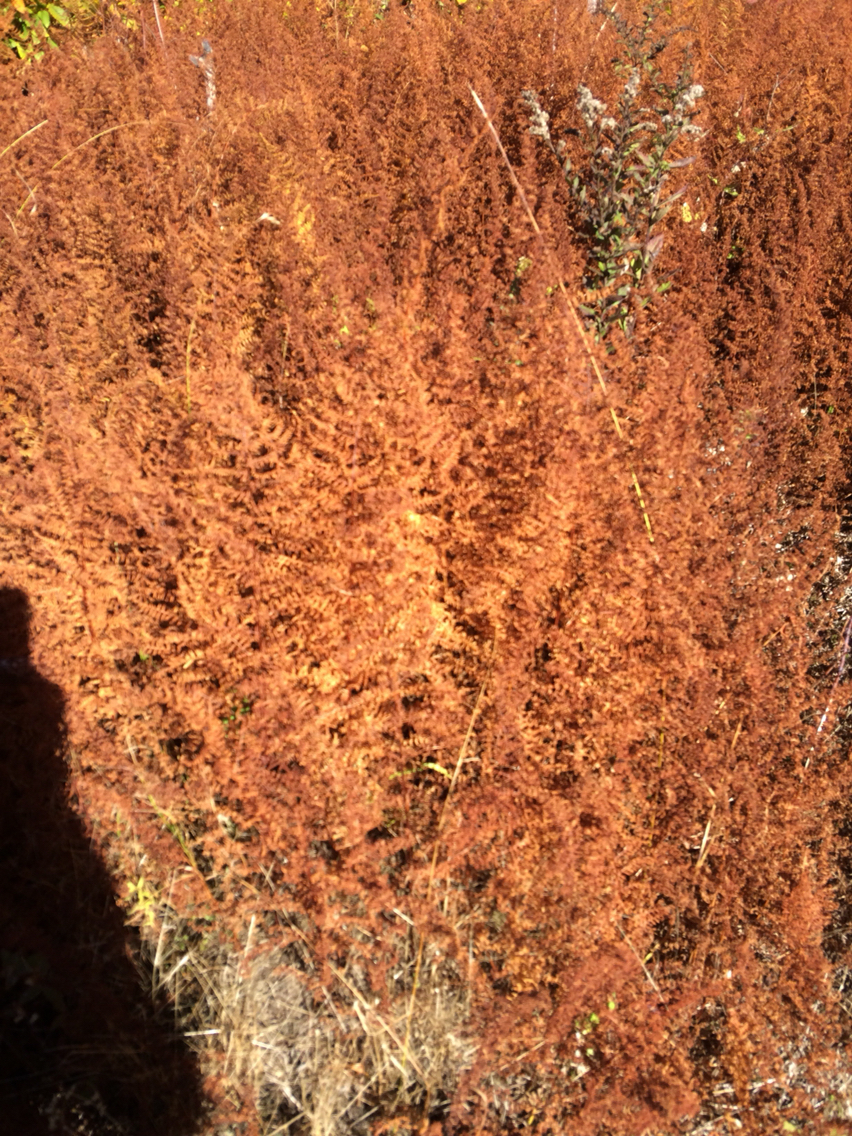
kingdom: Plantae
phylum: Tracheophyta
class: Polypodiopsida
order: Polypodiales
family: Dennstaedtiaceae
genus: Sitobolium
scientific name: Sitobolium punctilobum
